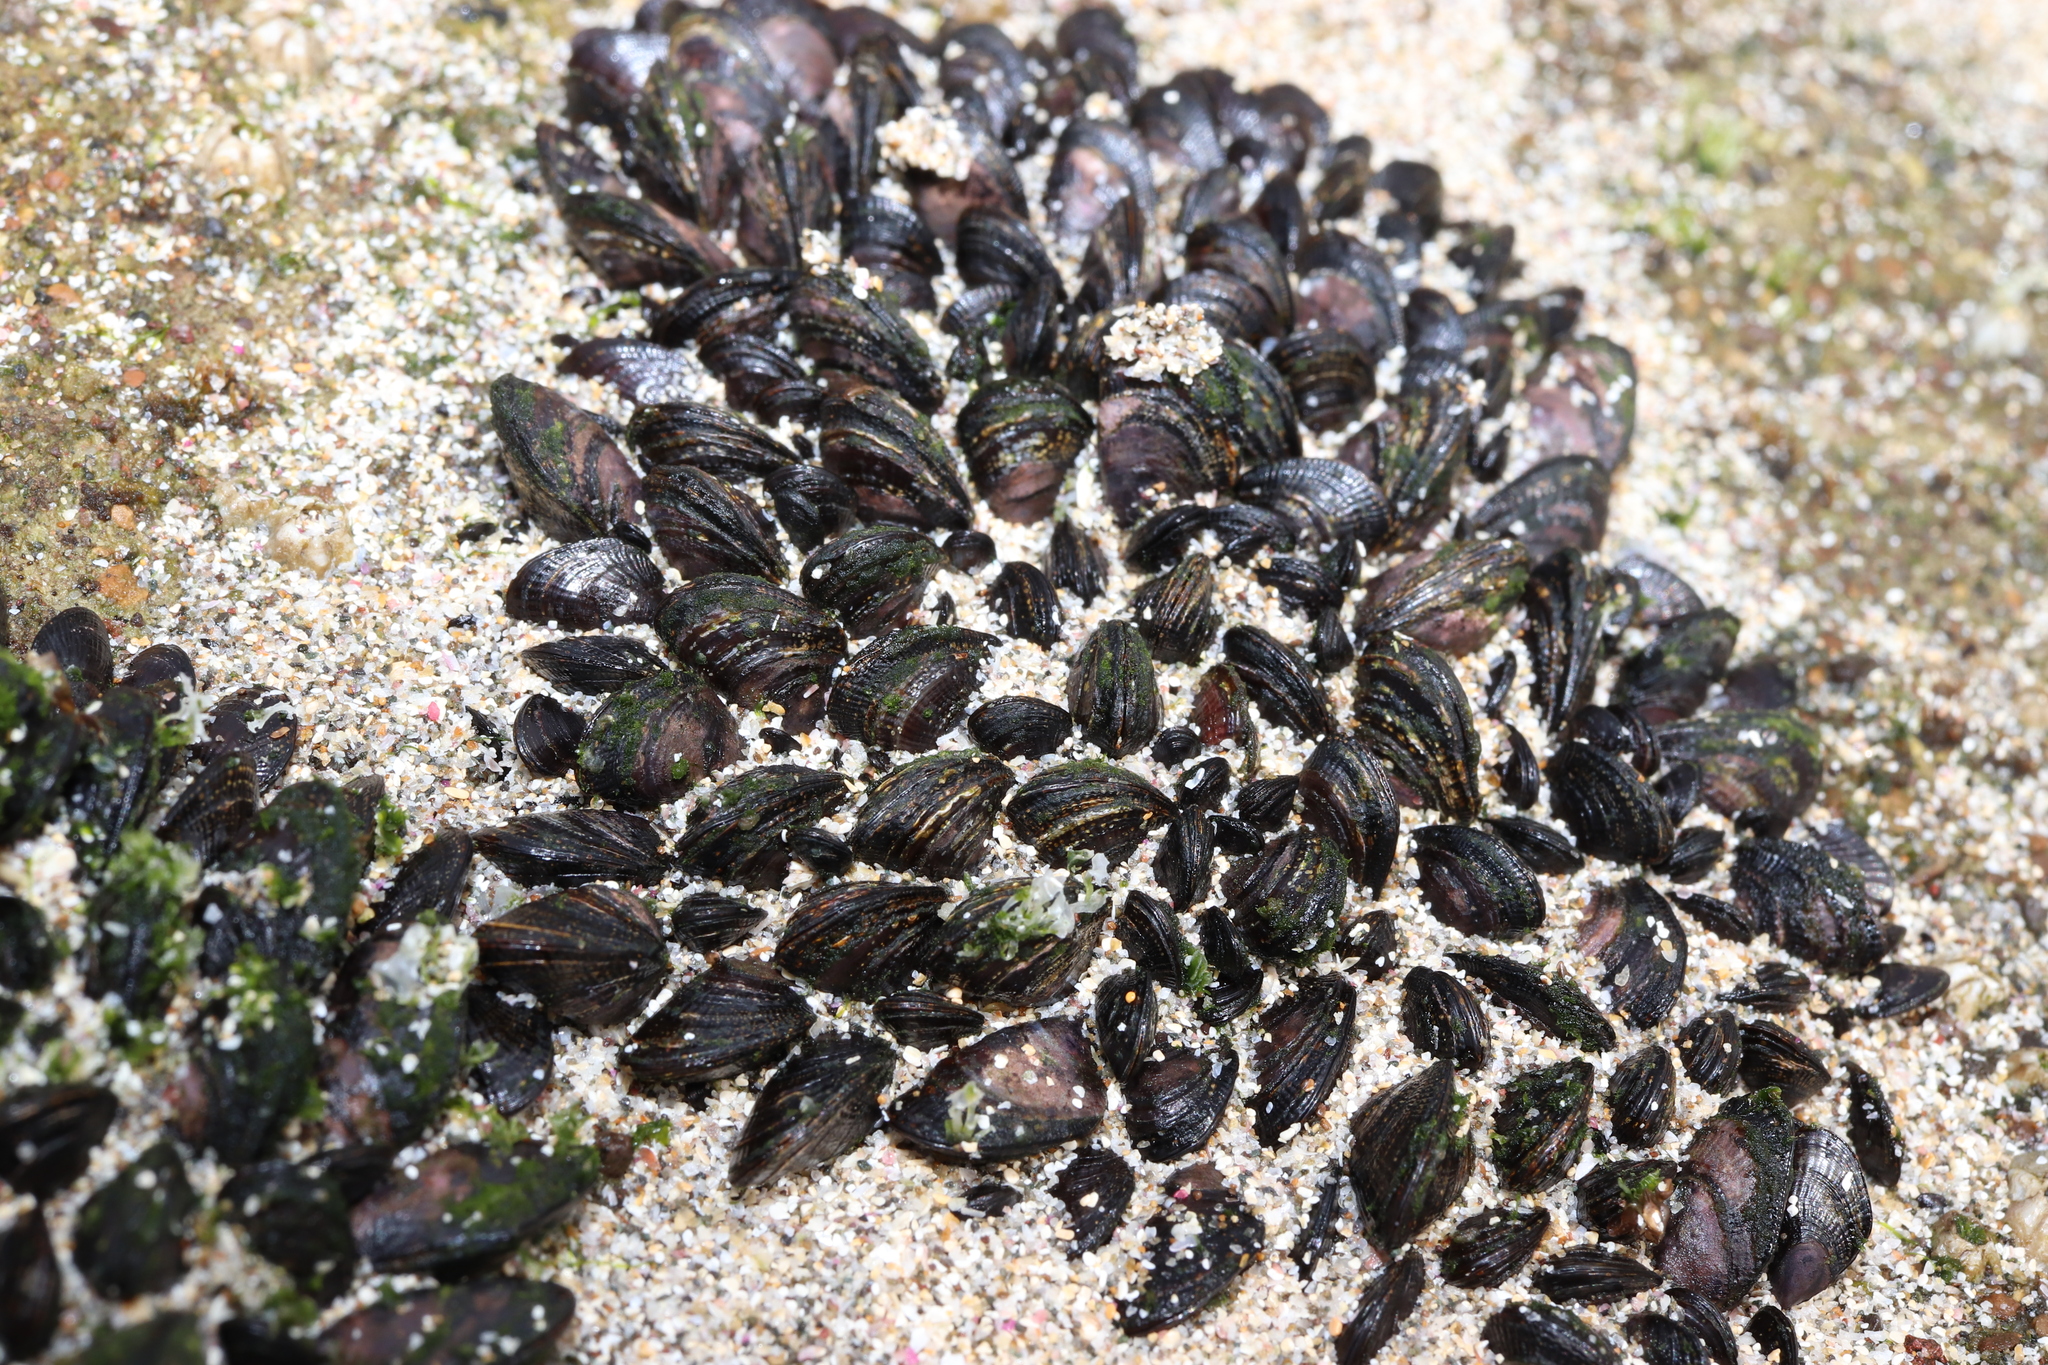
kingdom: Animalia
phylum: Mollusca
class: Bivalvia
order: Mytilida
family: Mytilidae
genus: Brachidontes
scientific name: Brachidontes mutabilis
